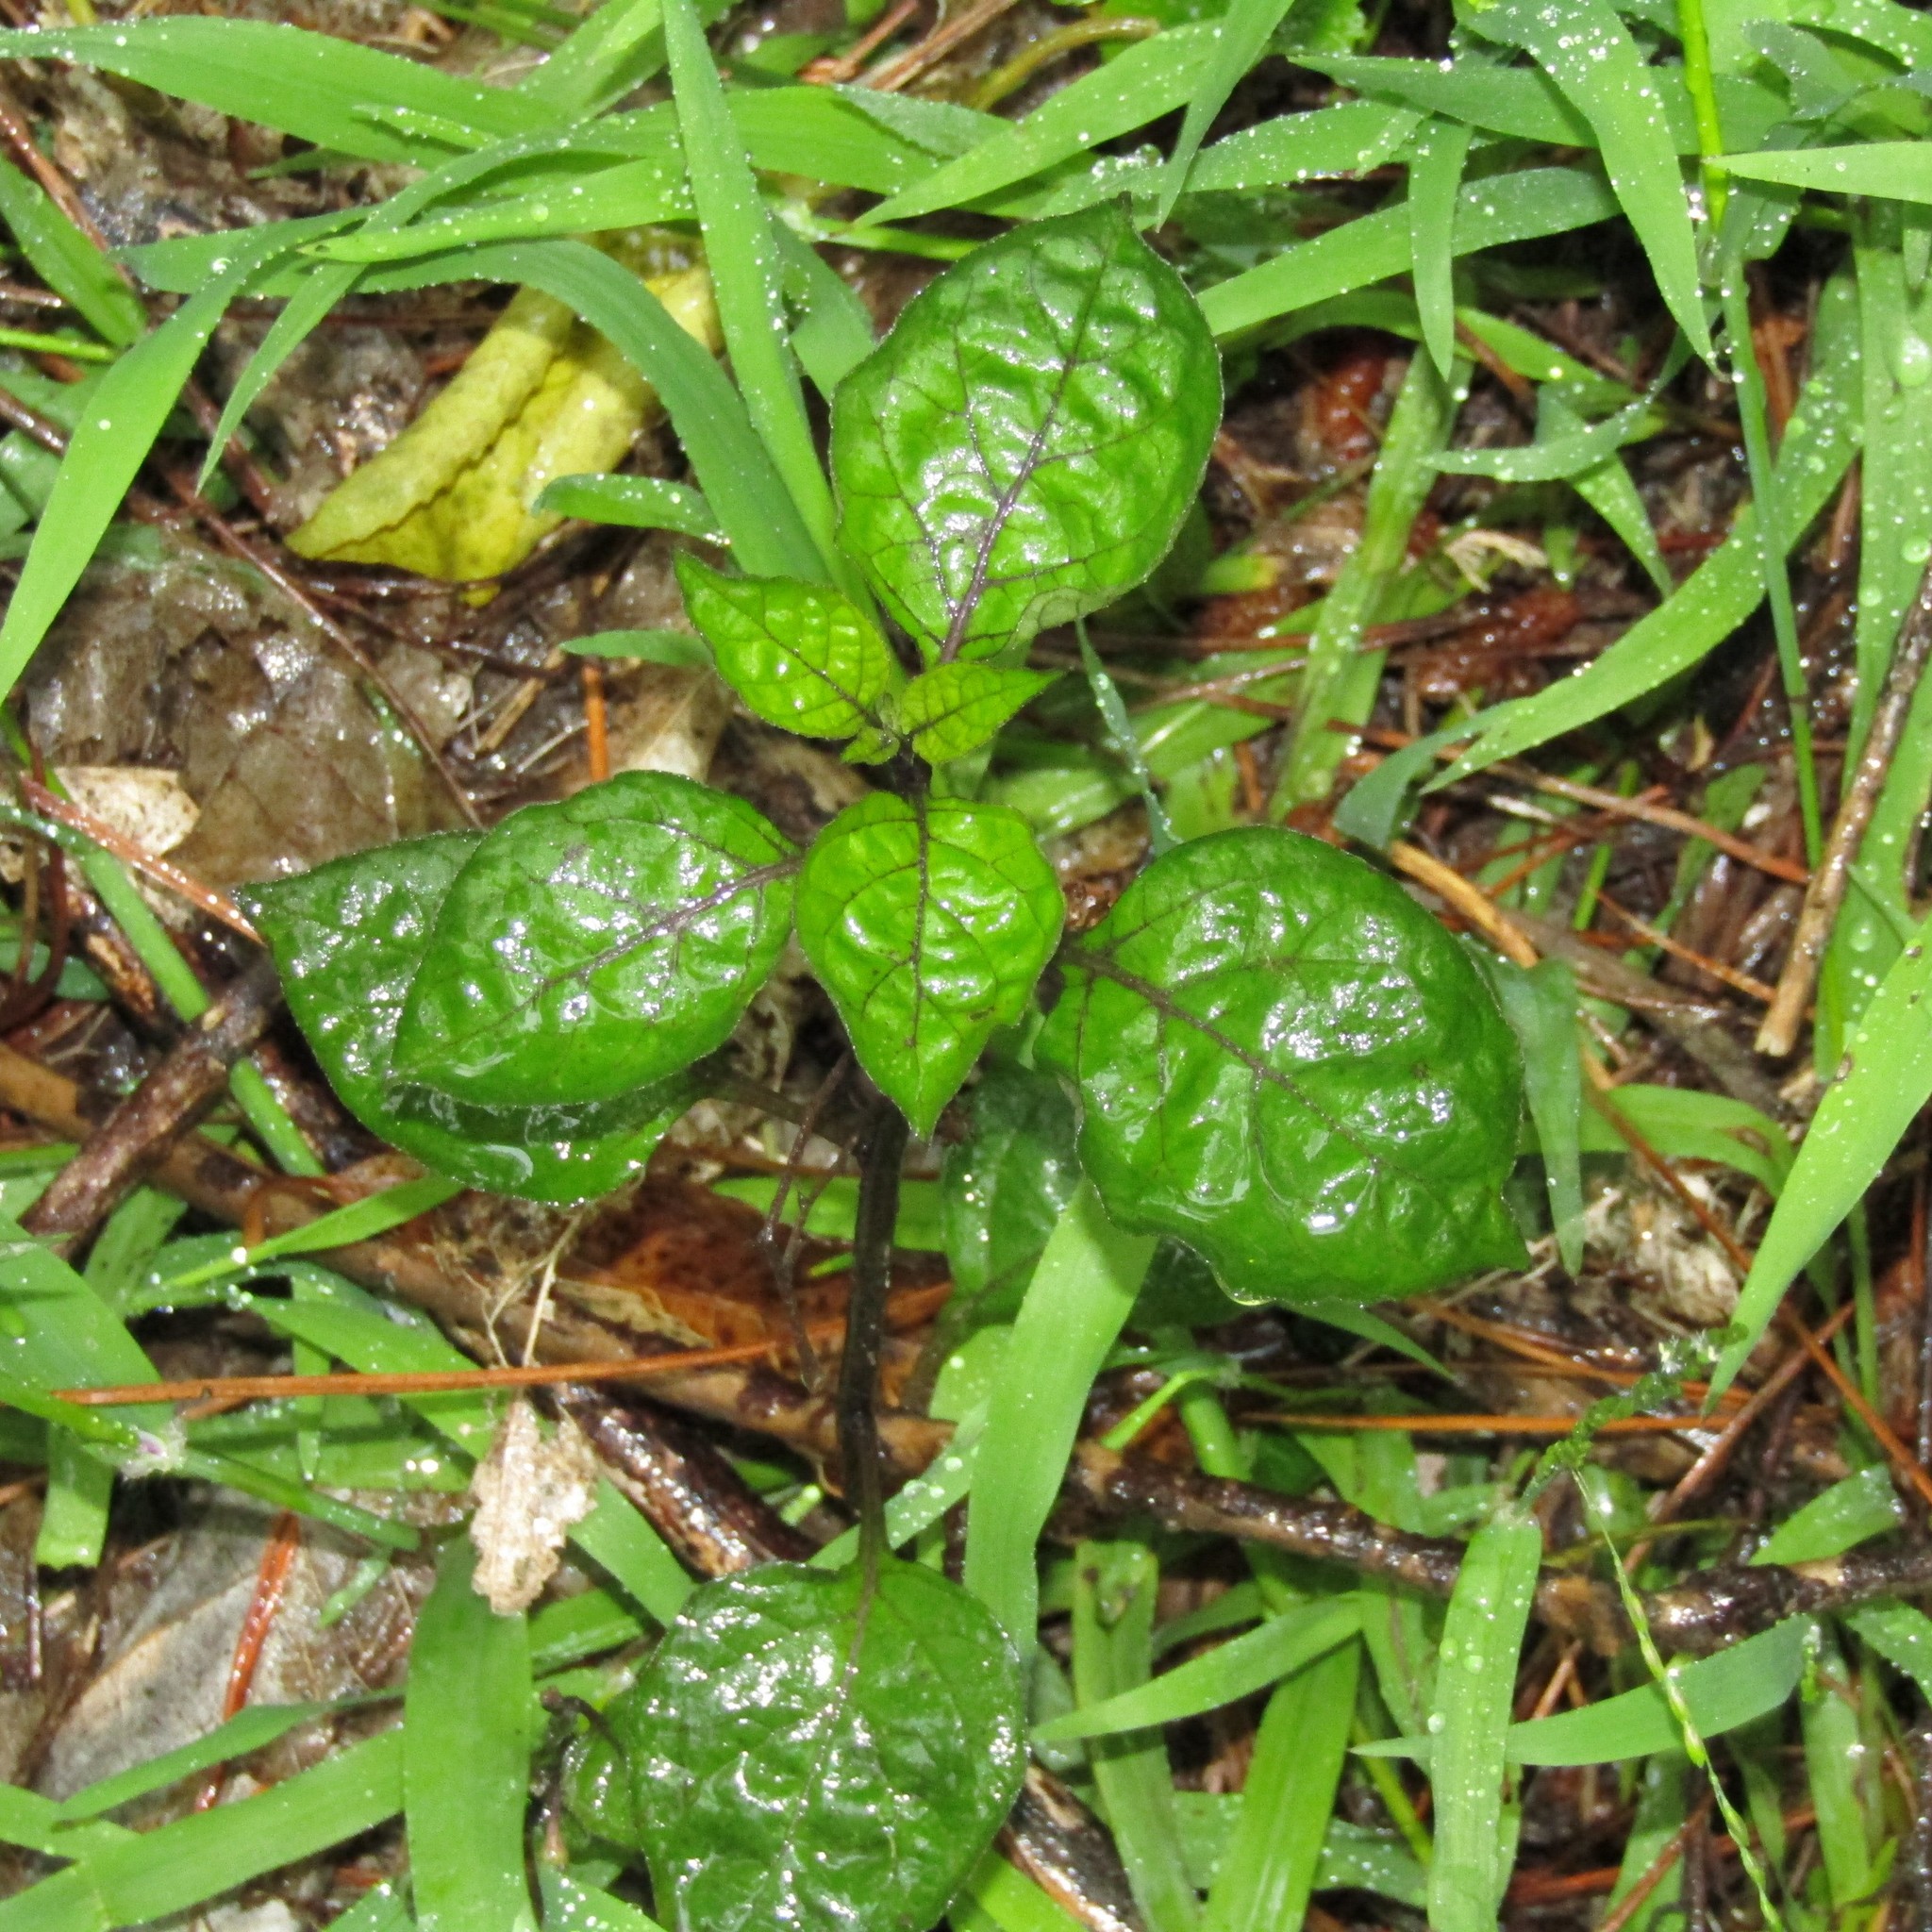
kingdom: Plantae
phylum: Tracheophyta
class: Magnoliopsida
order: Solanales
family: Solanaceae
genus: Solanum
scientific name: Solanum nigrum
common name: Black nightshade
